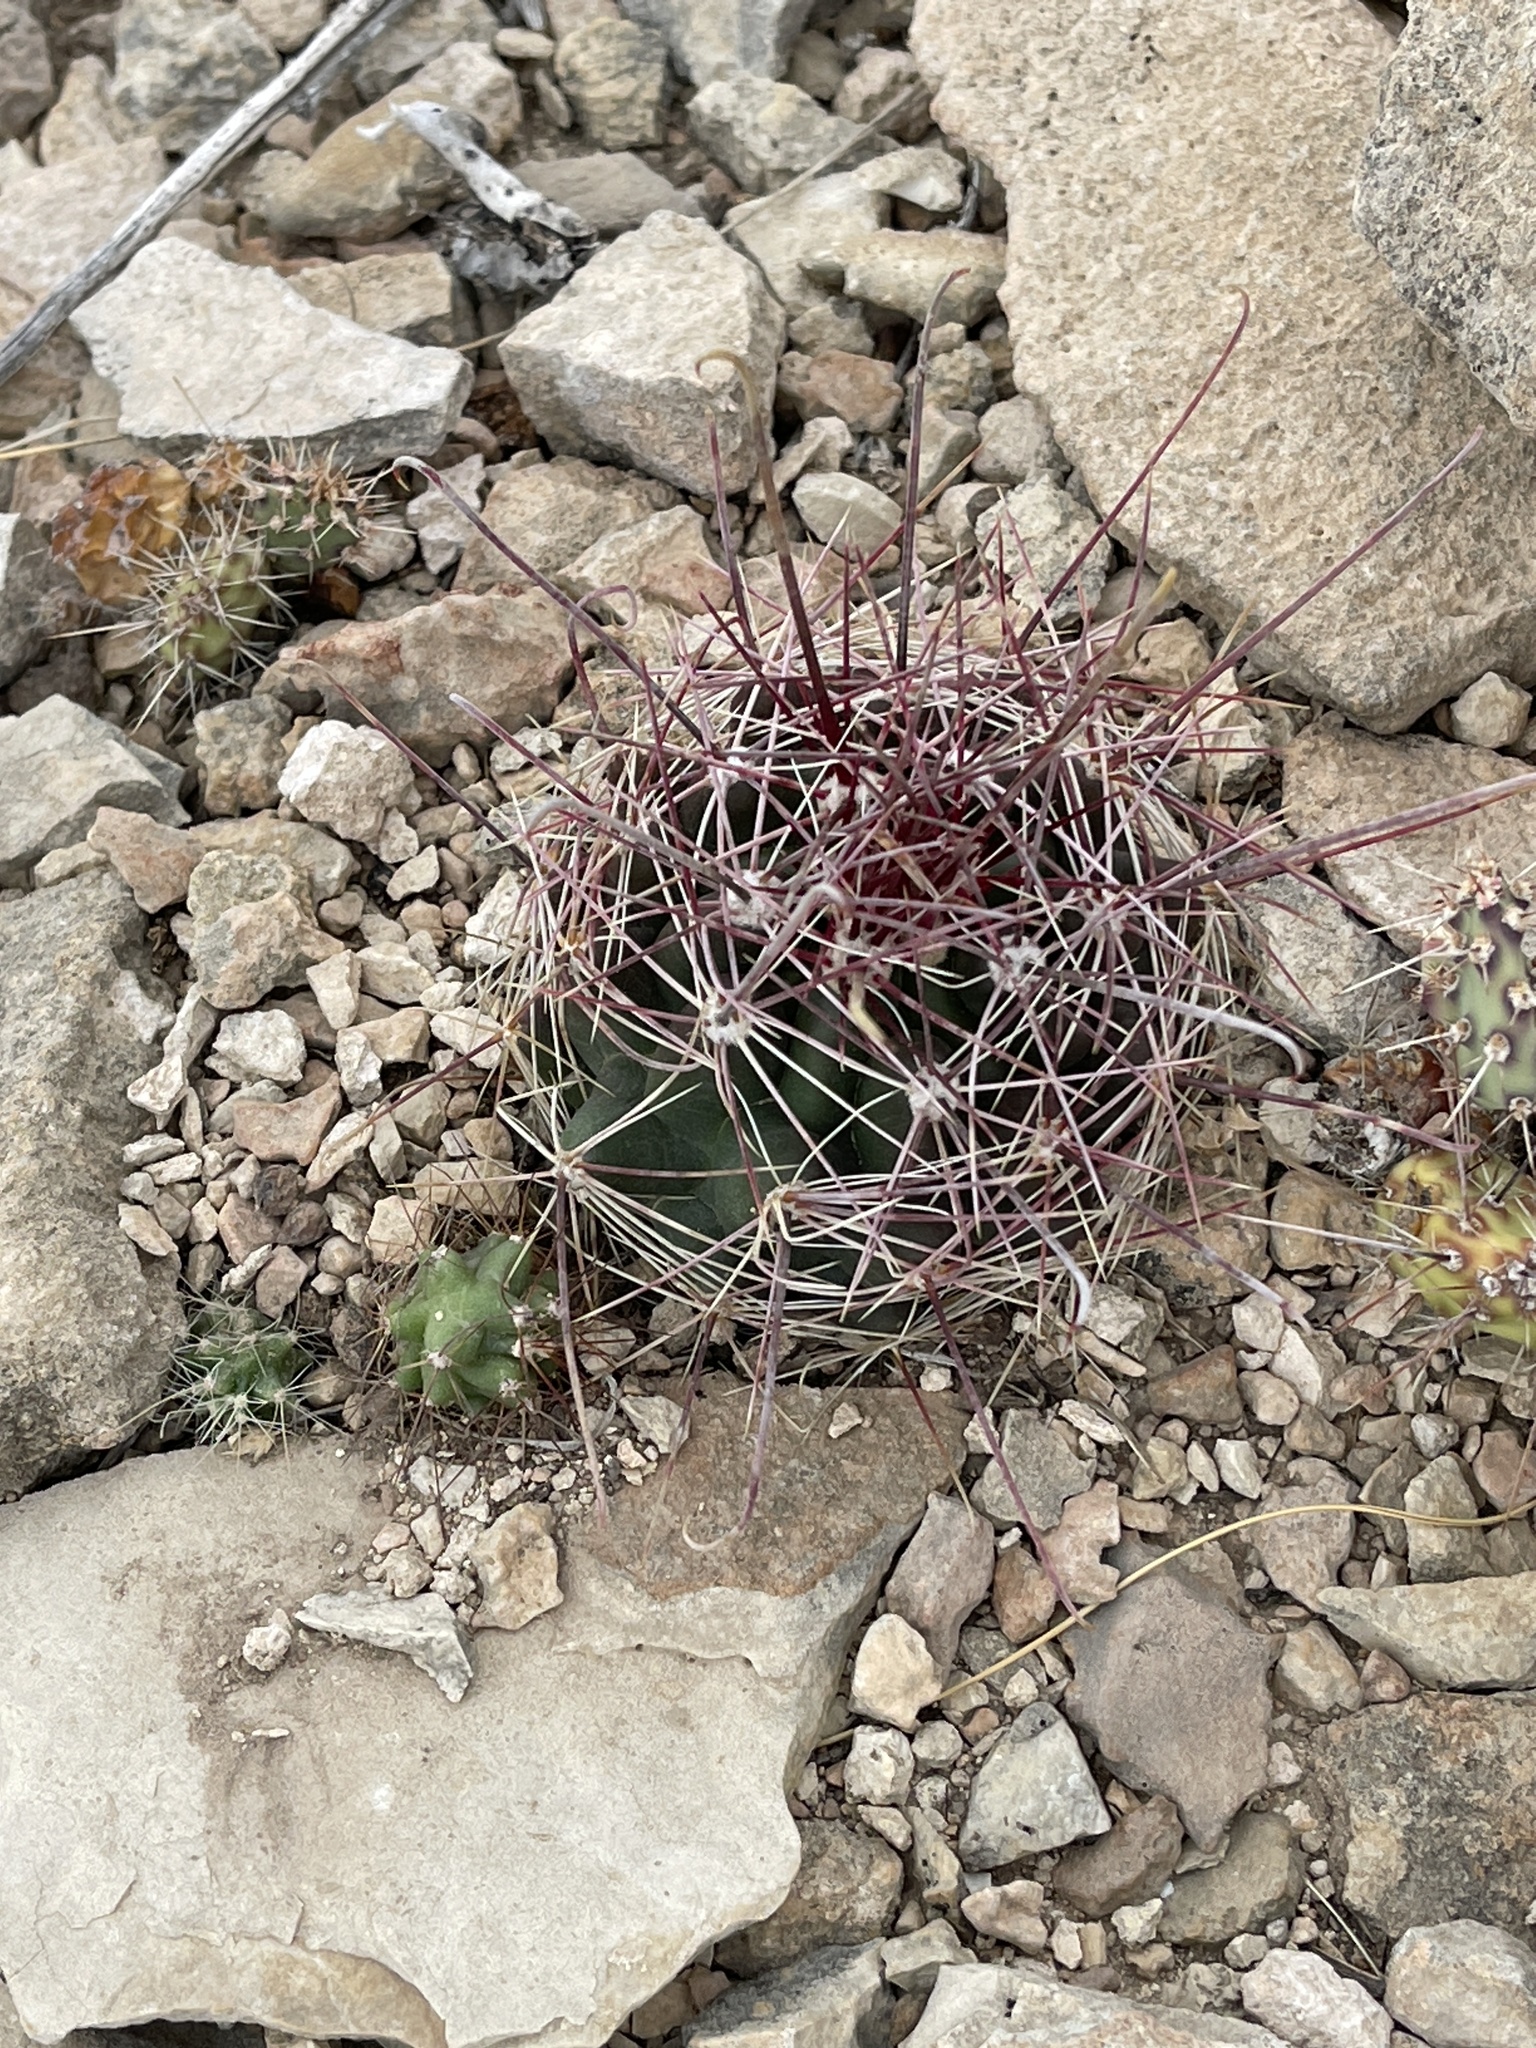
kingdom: Plantae
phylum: Tracheophyta
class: Magnoliopsida
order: Caryophyllales
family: Cactaceae
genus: Bisnaga
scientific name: Bisnaga hamatacantha
